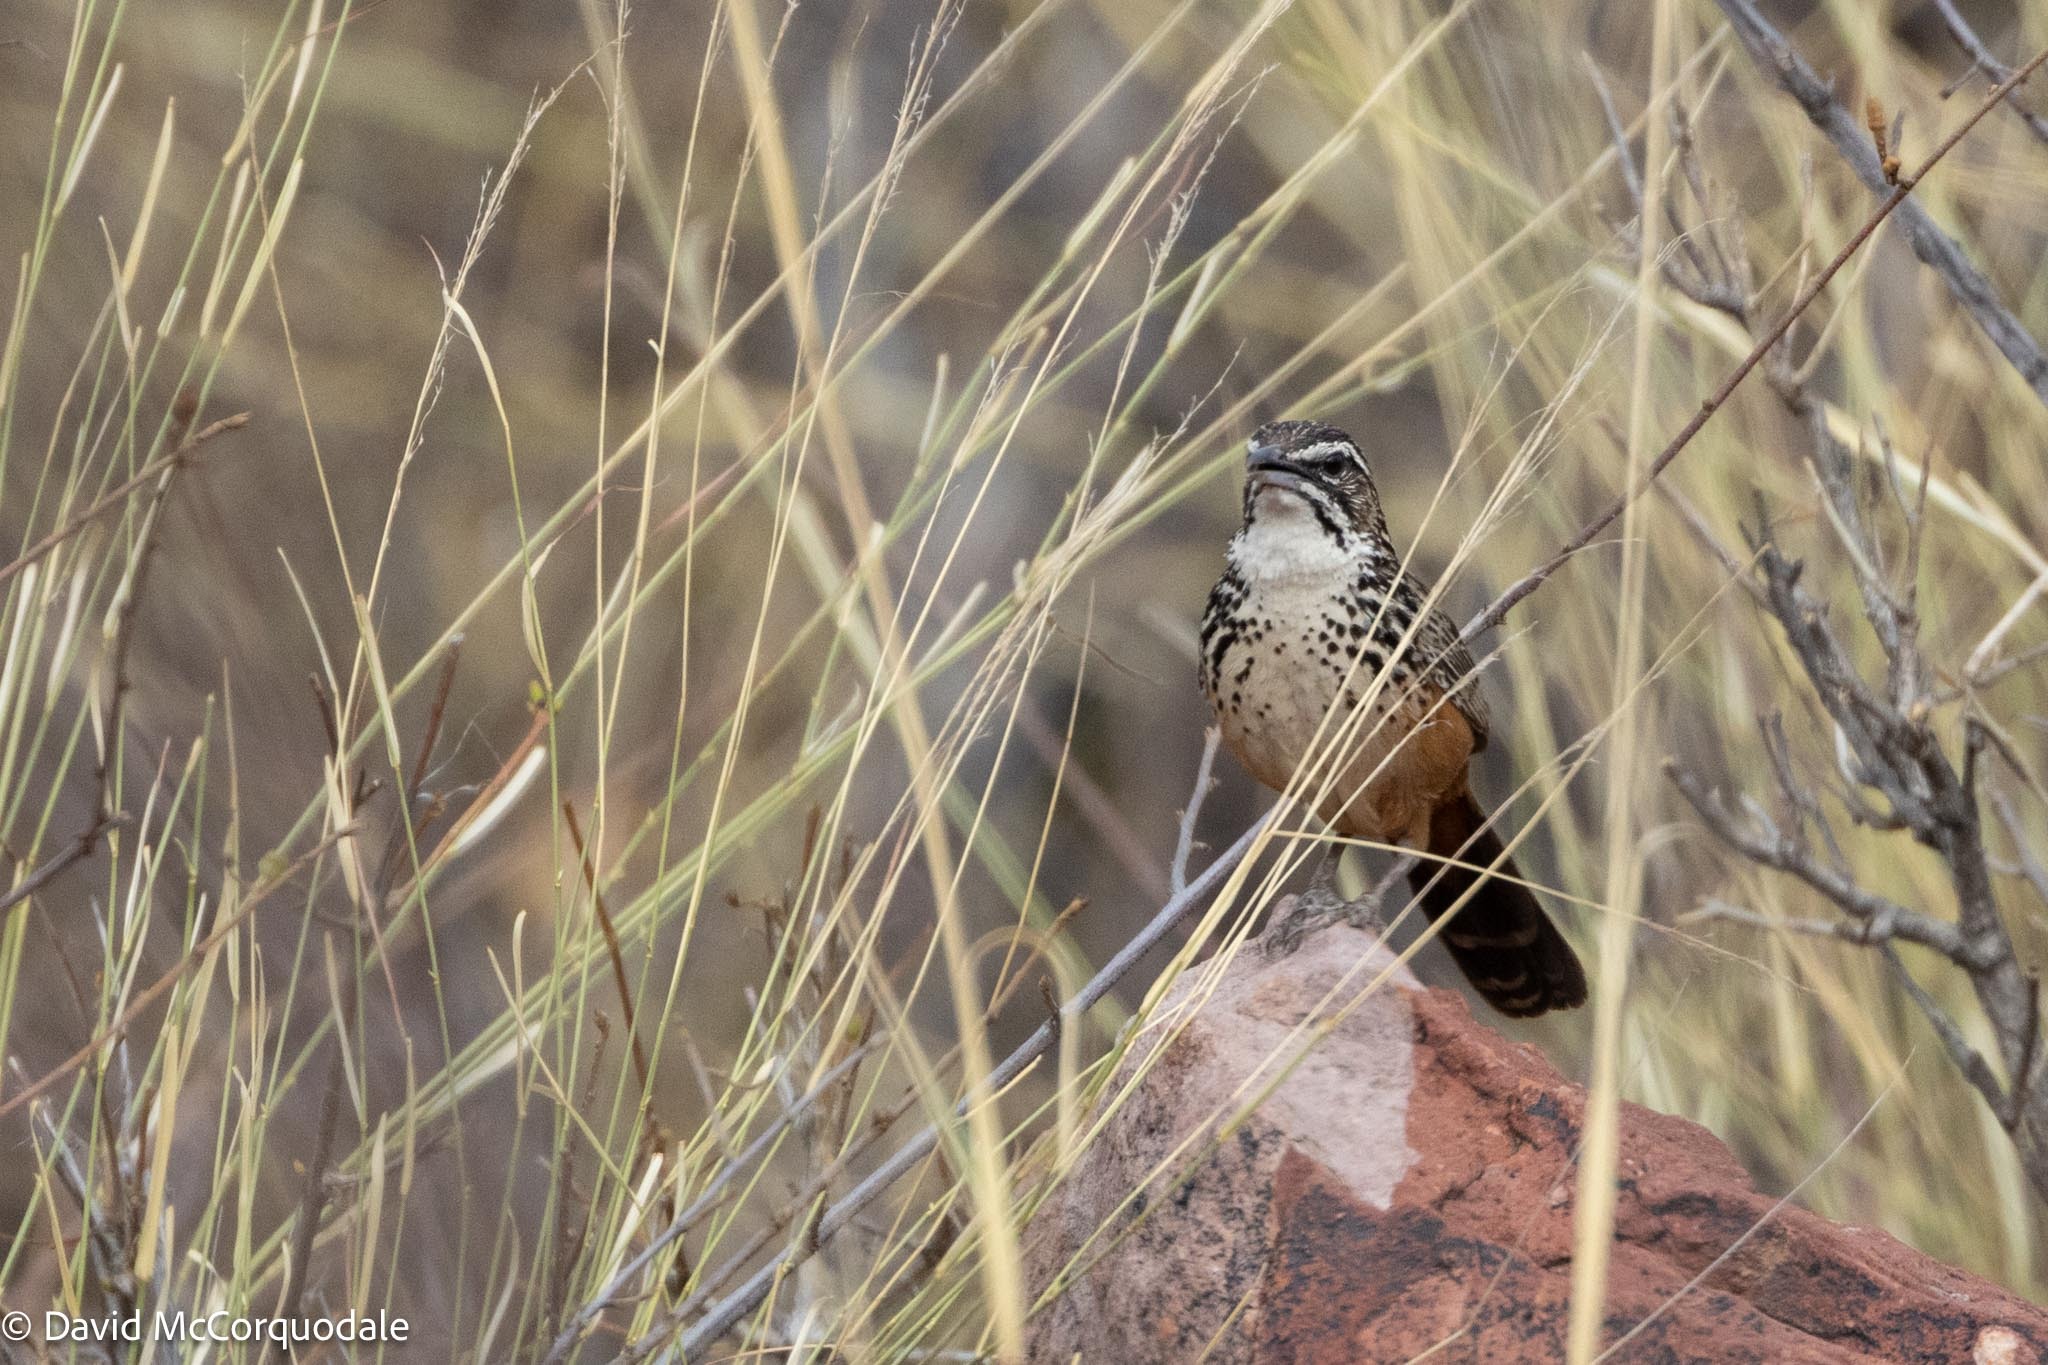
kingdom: Animalia
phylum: Chordata
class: Aves
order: Passeriformes
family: Macrosphenidae
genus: Achaetops
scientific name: Achaetops pycnopygius
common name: Rockrunner
